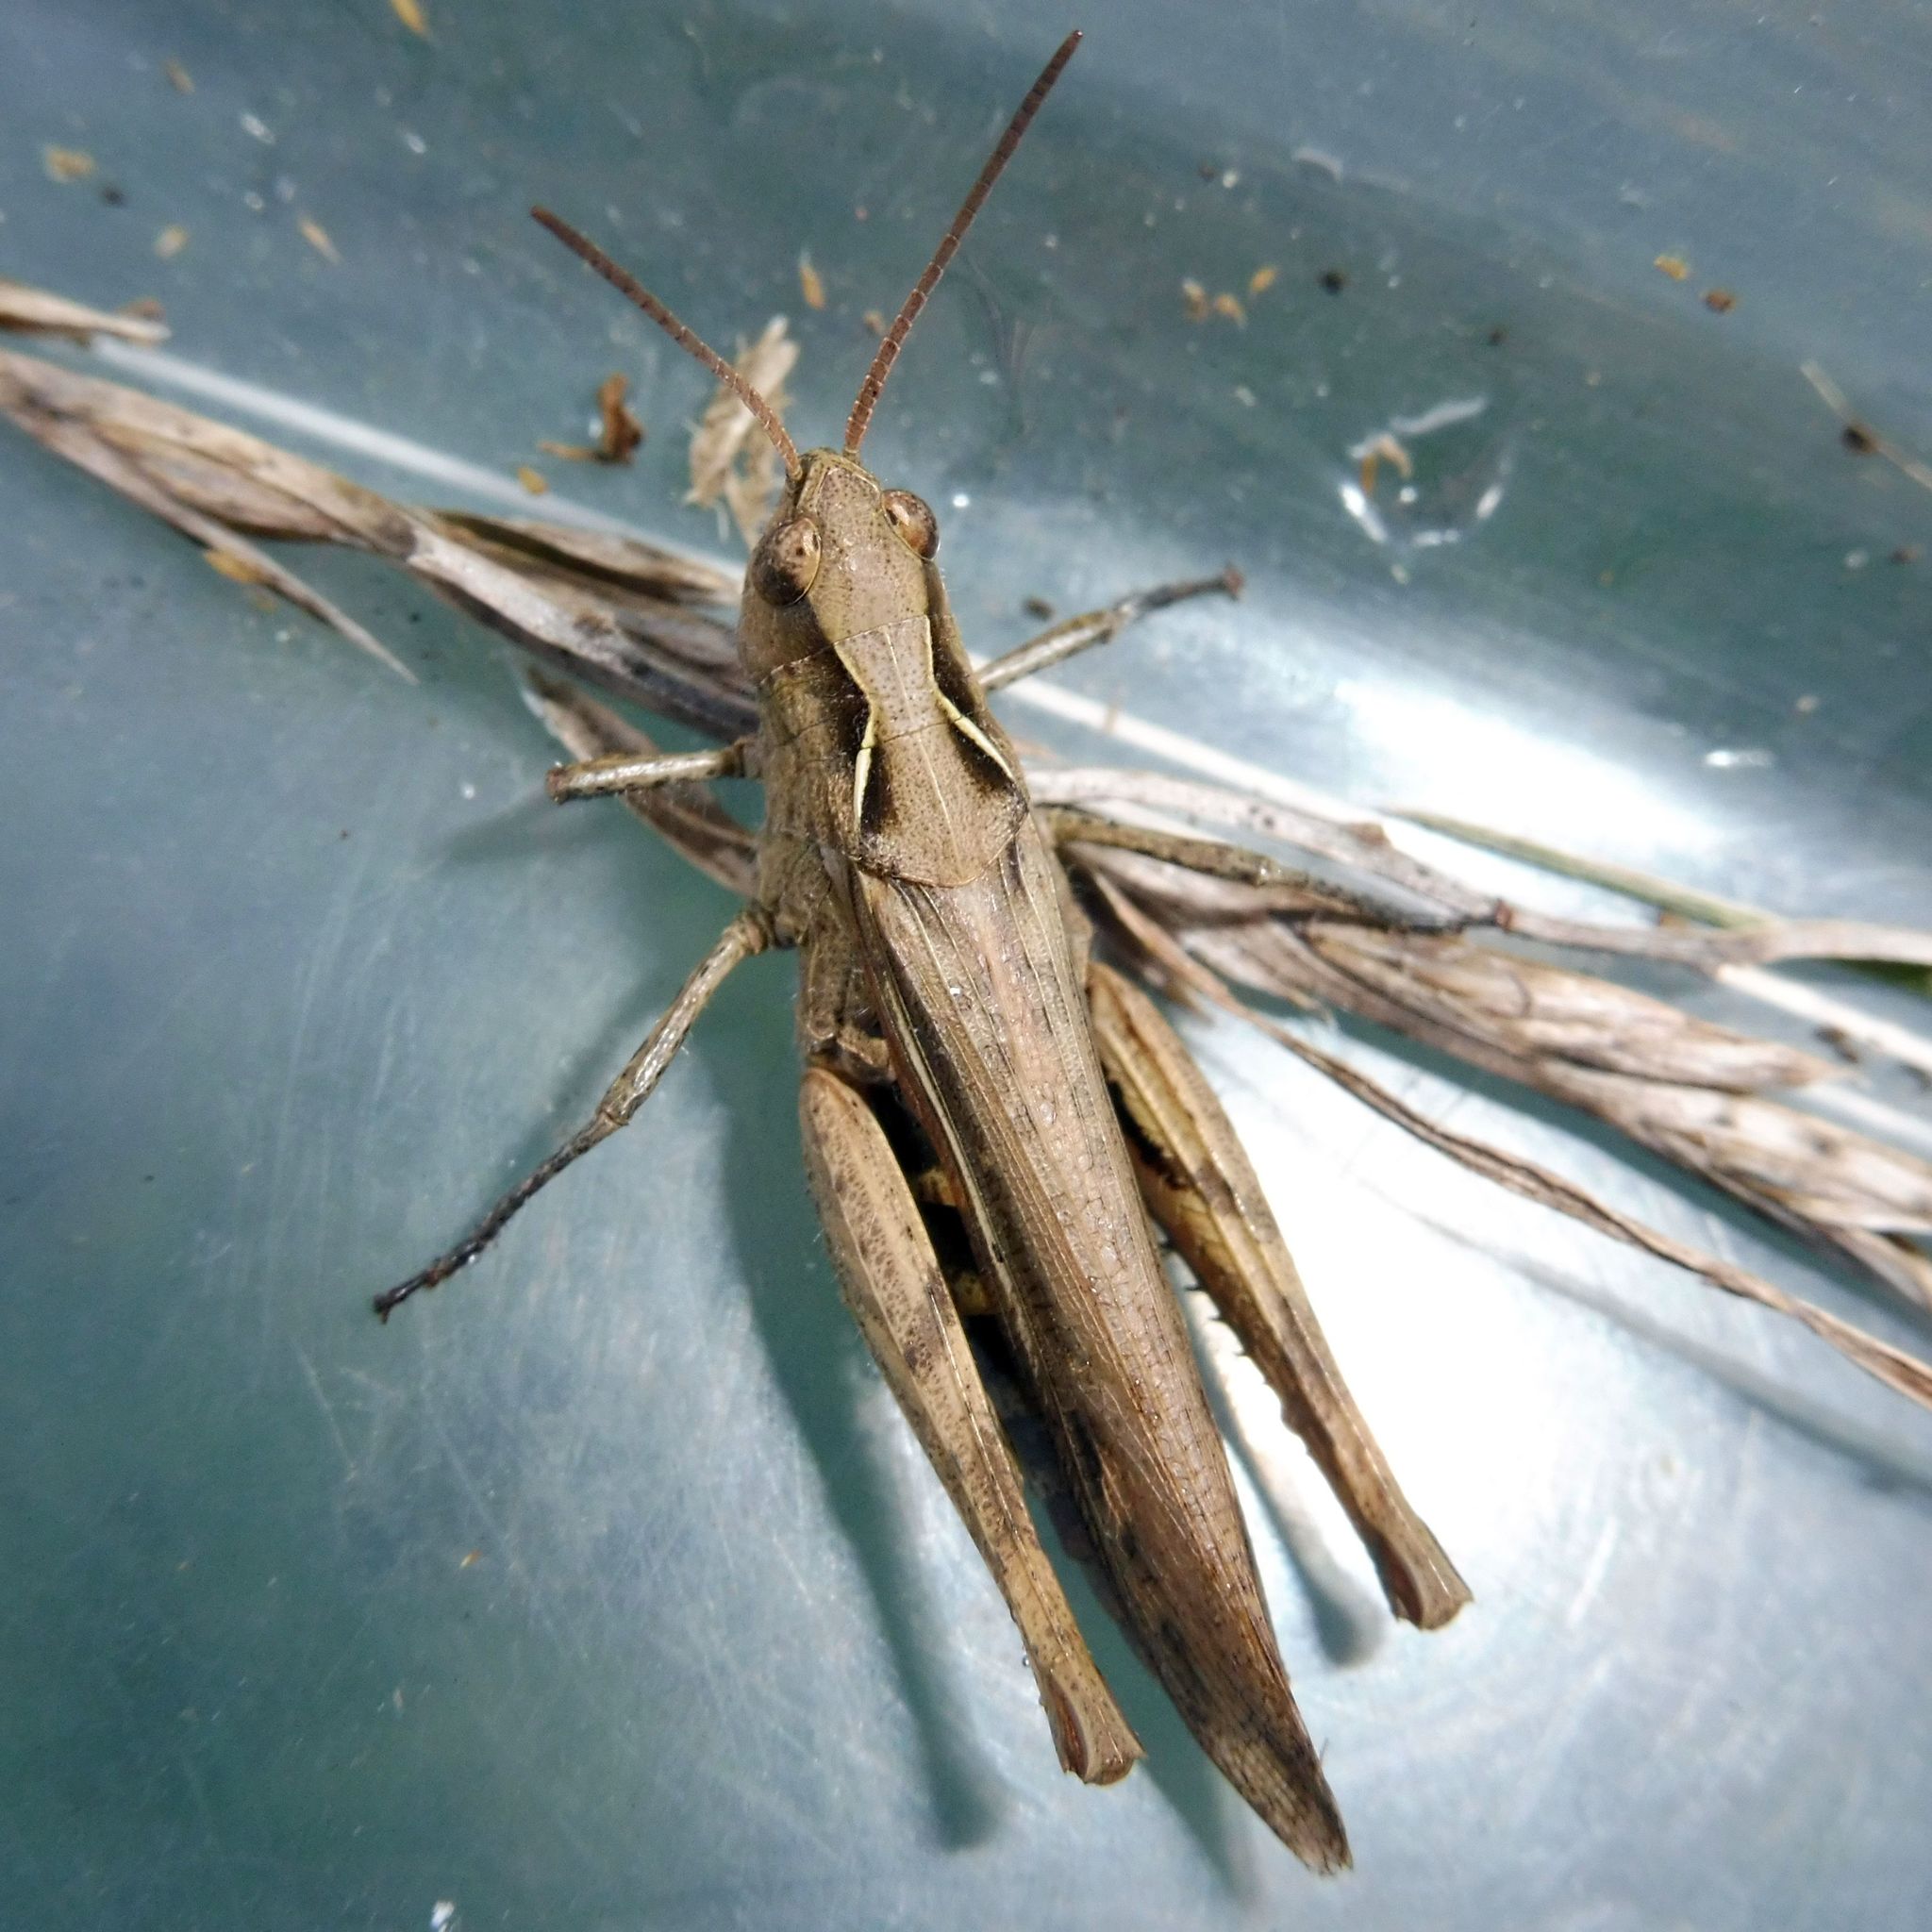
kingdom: Animalia
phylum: Arthropoda
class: Insecta
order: Orthoptera
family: Acrididae
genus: Chorthippus
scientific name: Chorthippus brunneus
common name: Field grasshopper
